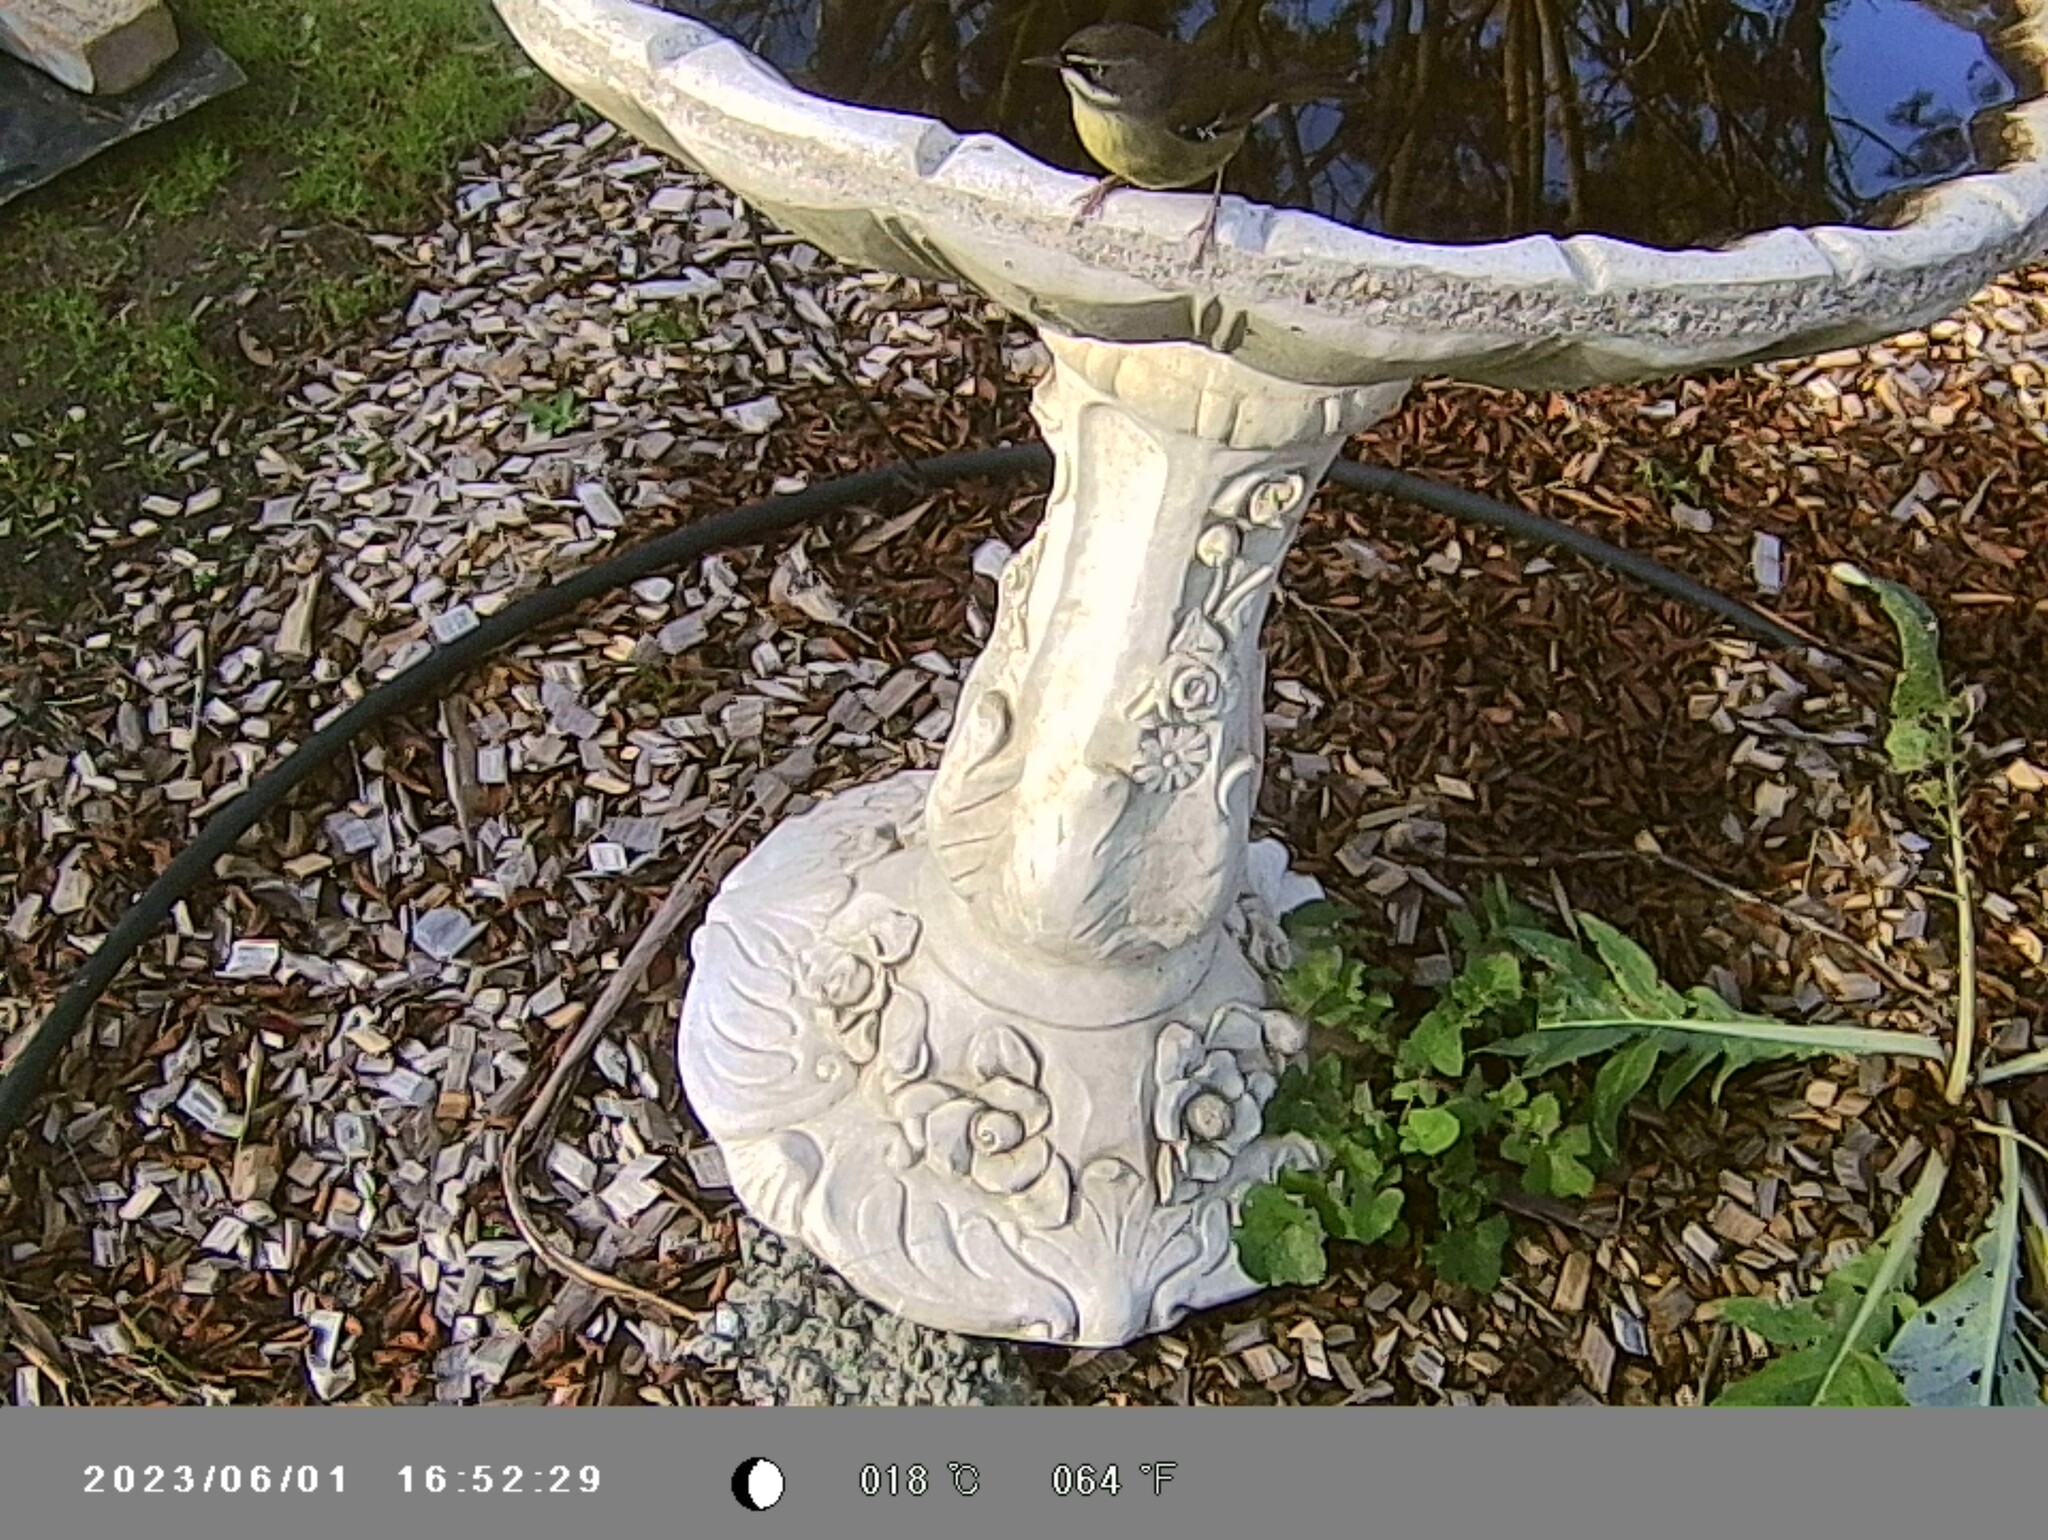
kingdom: Animalia
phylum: Chordata
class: Aves
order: Passeriformes
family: Acanthizidae
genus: Sericornis
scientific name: Sericornis frontalis
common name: White-browed scrubwren
